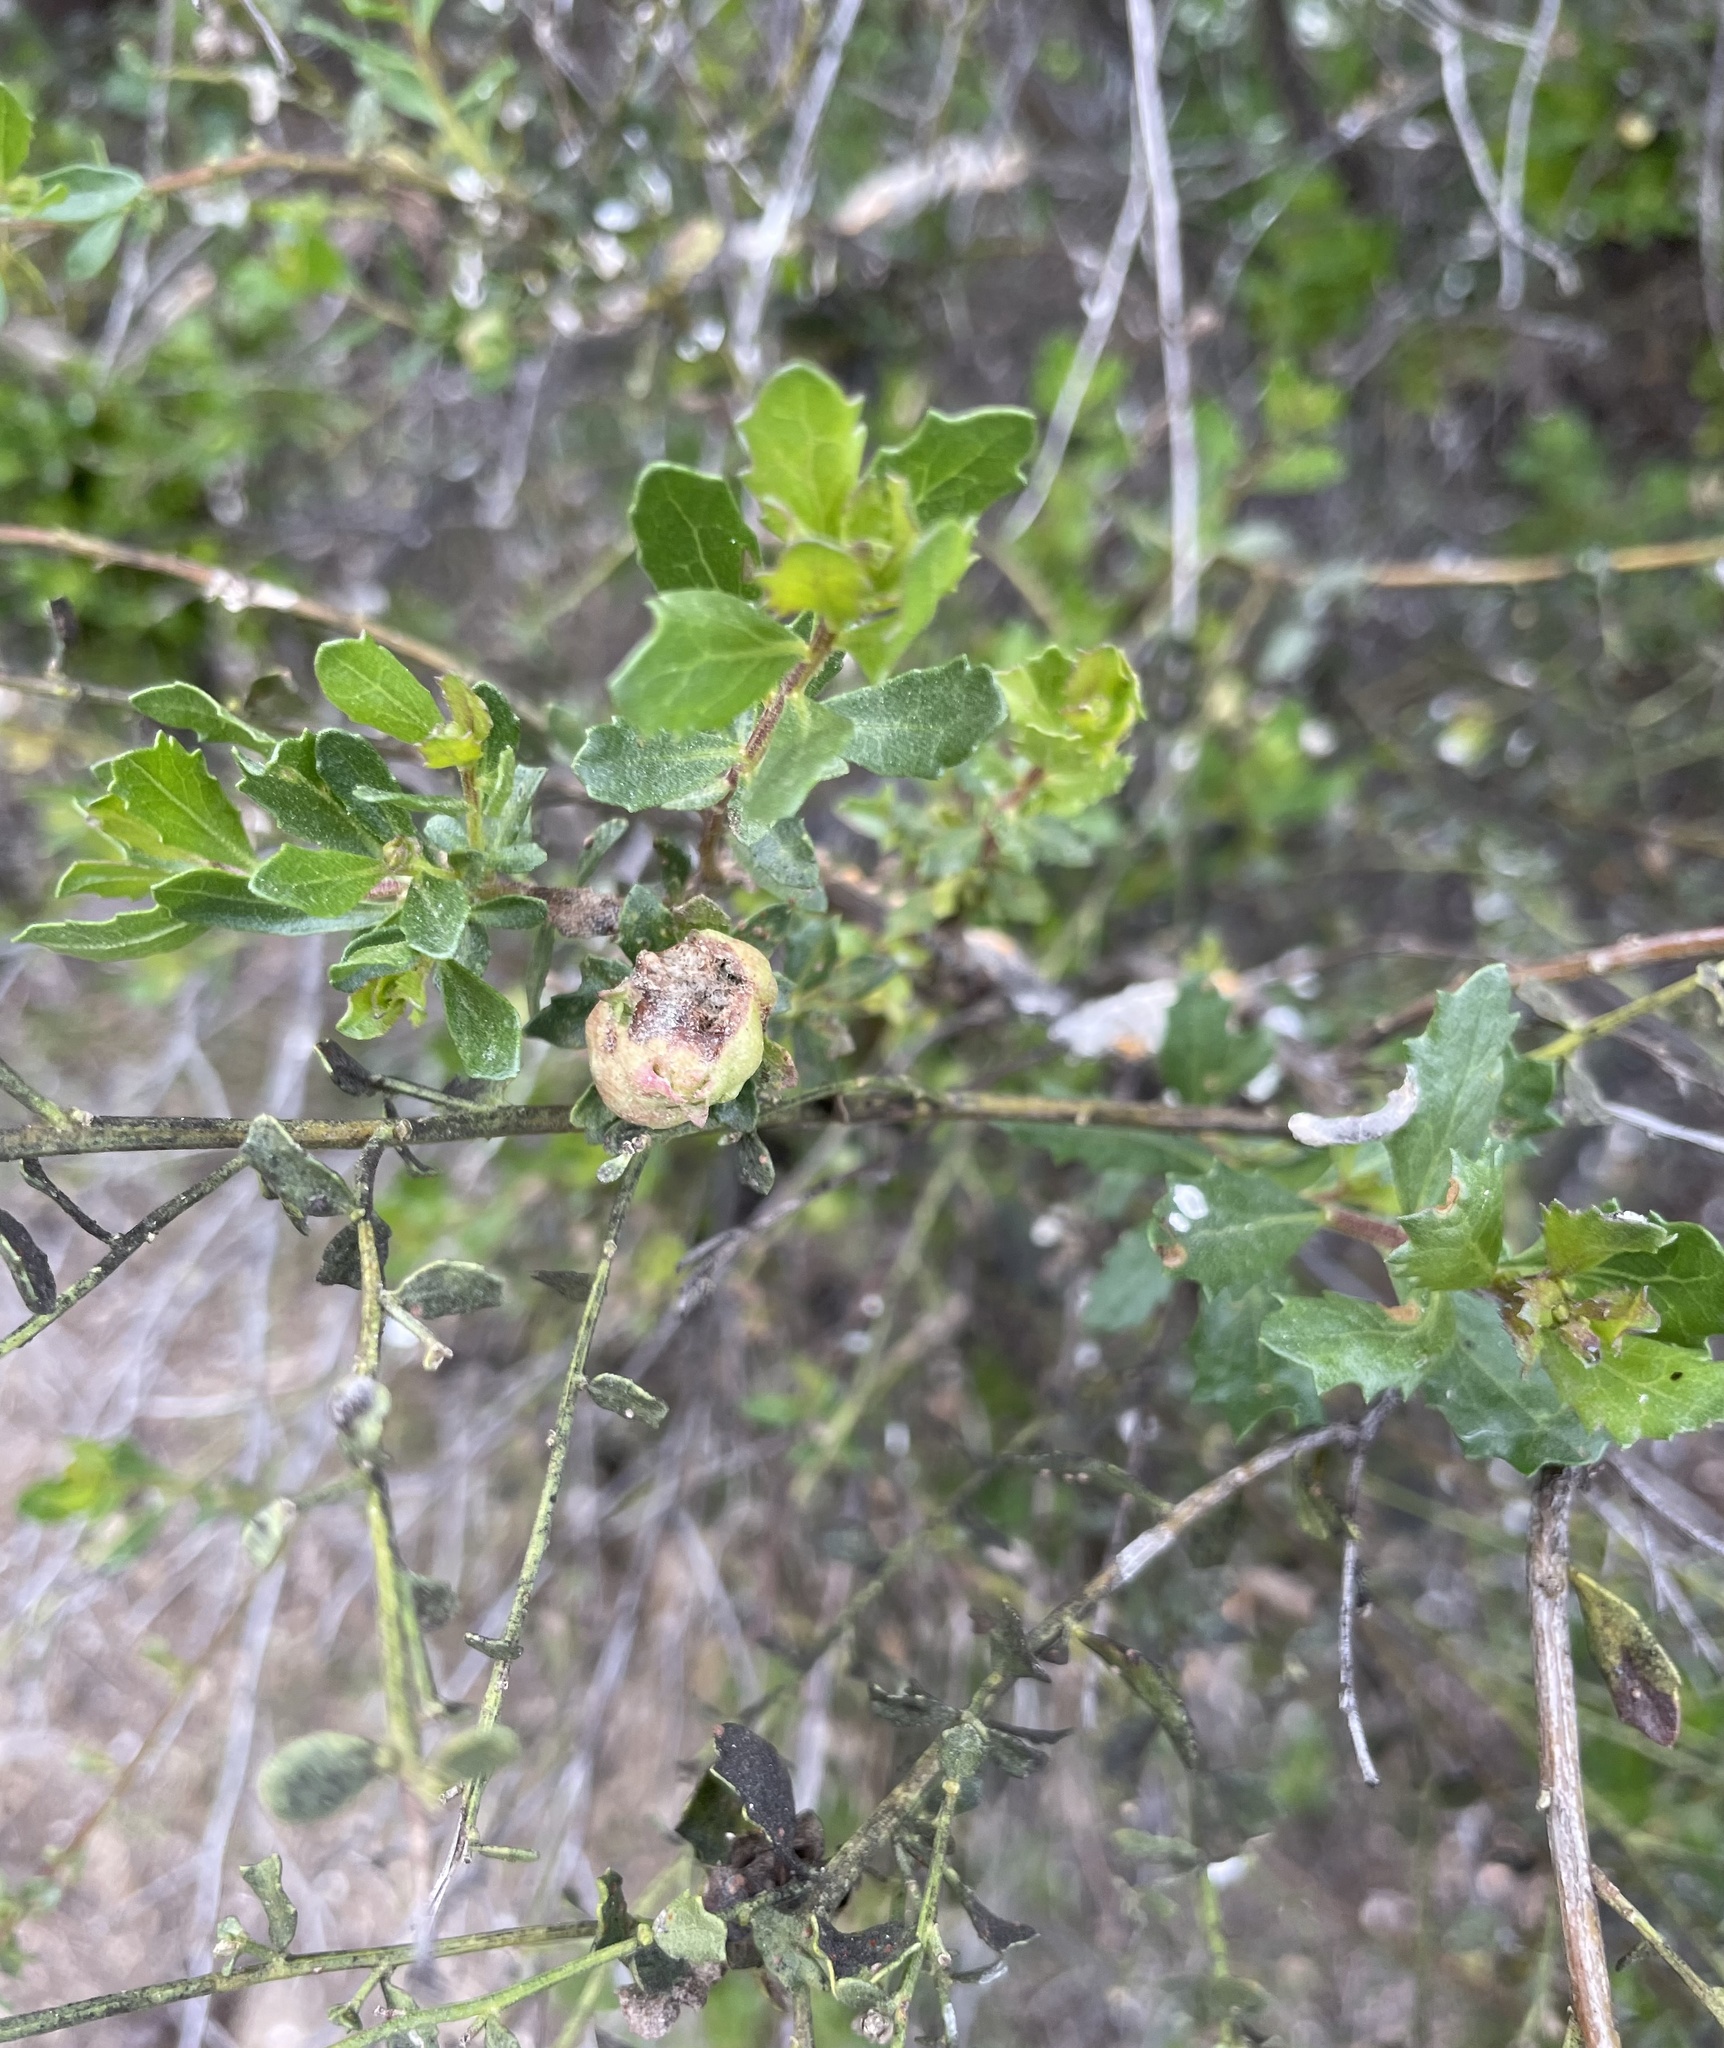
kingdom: Animalia
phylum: Arthropoda
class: Insecta
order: Diptera
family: Cecidomyiidae
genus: Rhopalomyia
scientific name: Rhopalomyia californica
